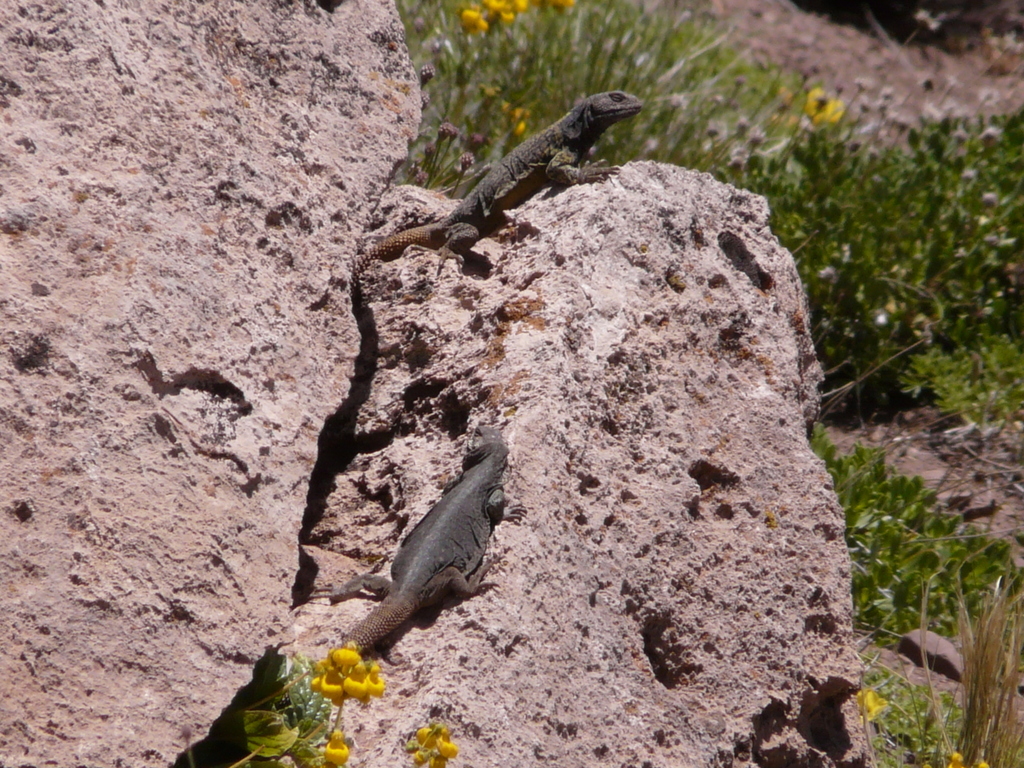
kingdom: Animalia
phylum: Chordata
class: Squamata
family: Liolaemidae
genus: Phymaturus
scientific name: Phymaturus verdugo
